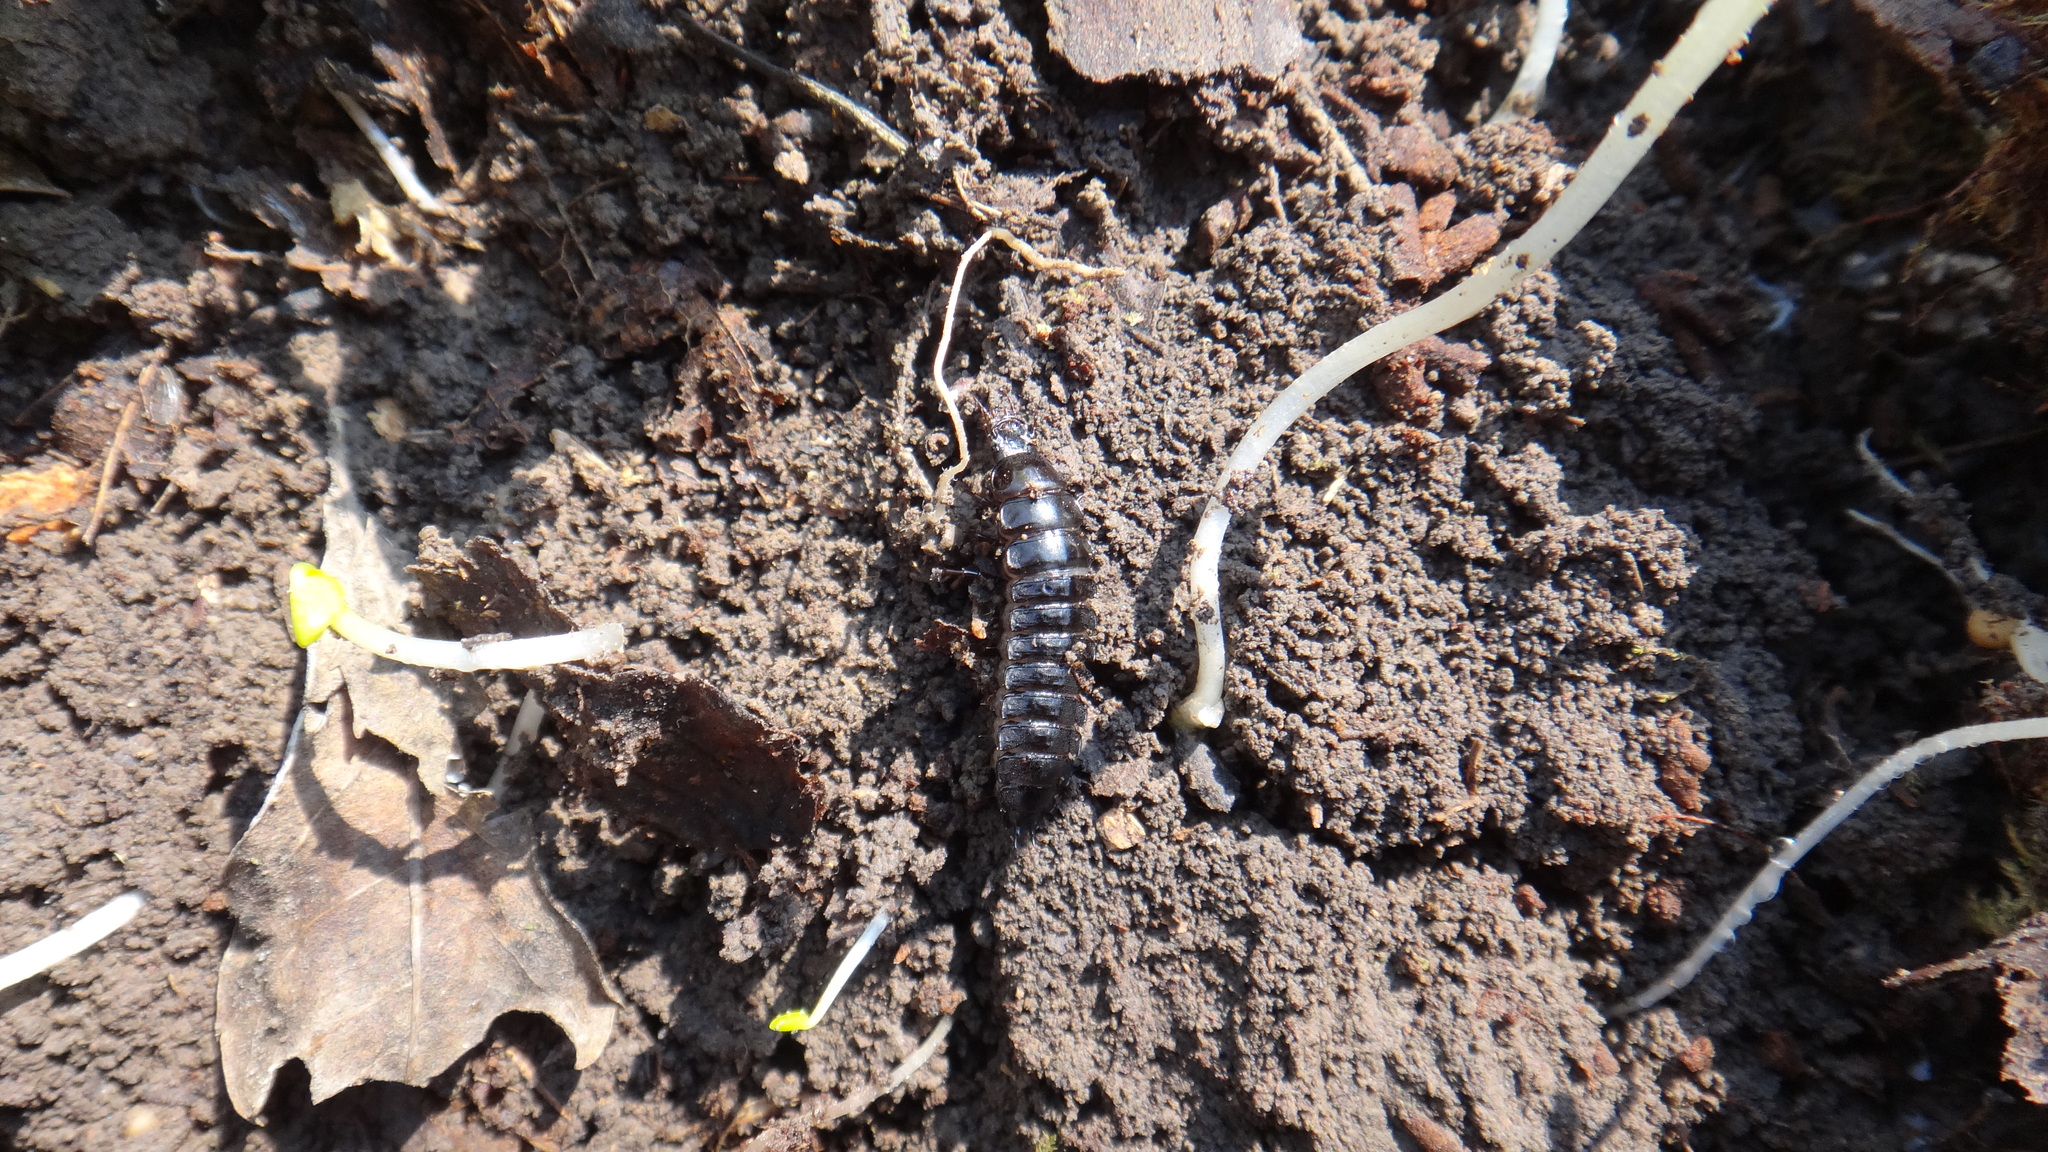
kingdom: Animalia
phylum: Arthropoda
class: Insecta
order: Coleoptera
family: Carabidae
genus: Carabus
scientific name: Carabus
